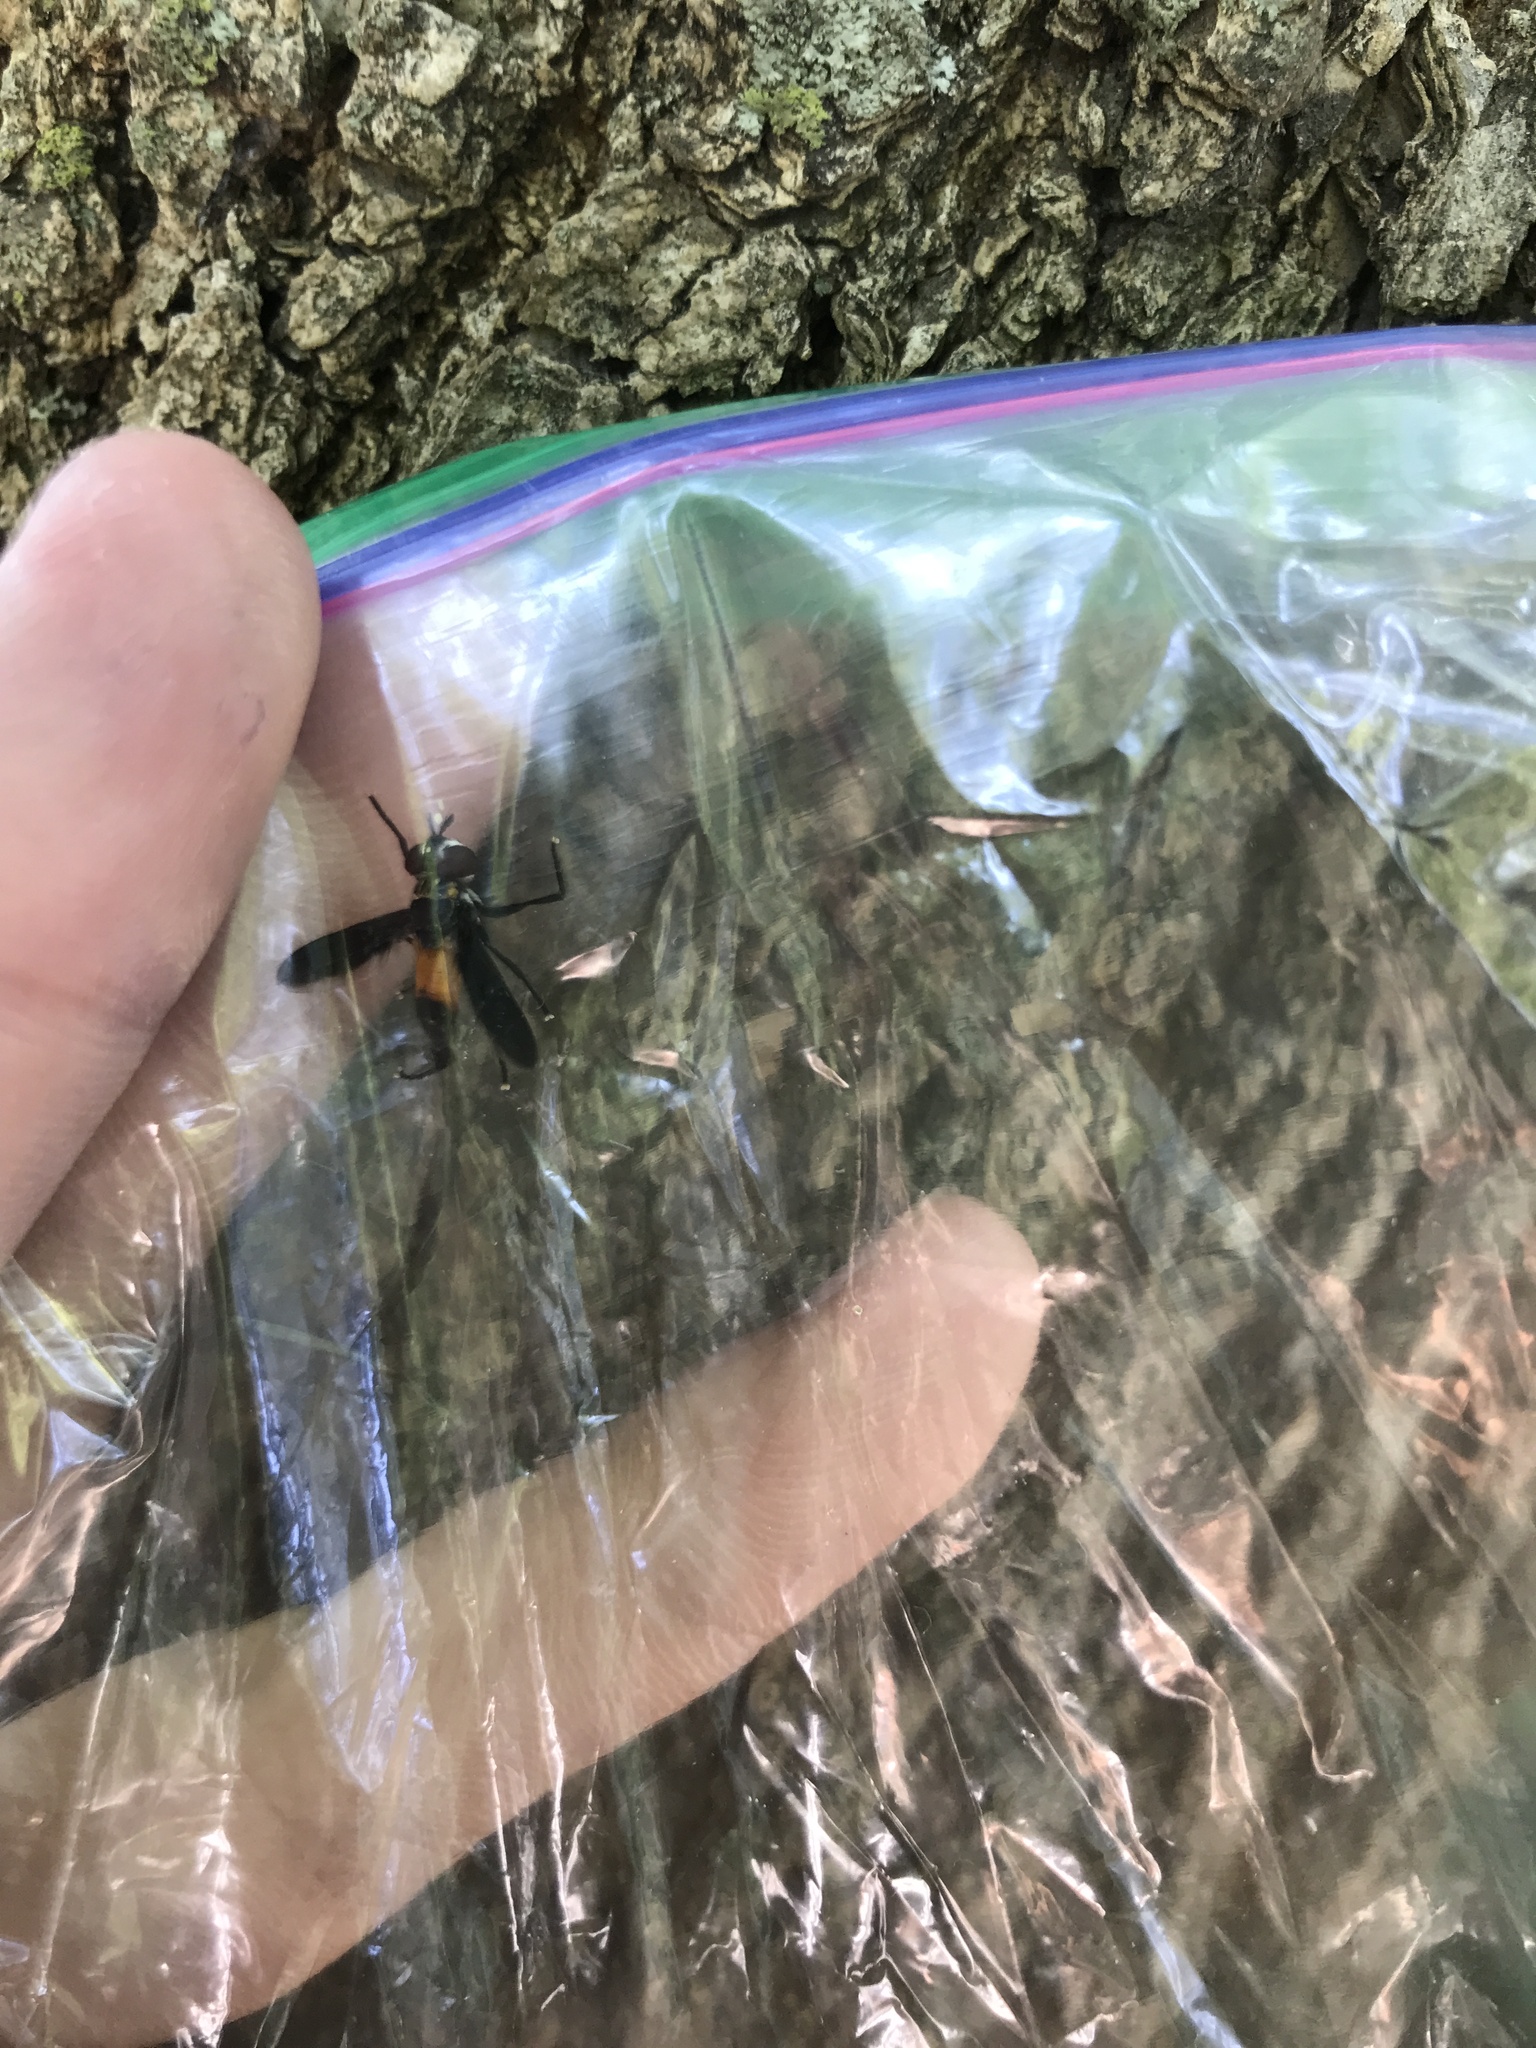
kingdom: Animalia
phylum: Arthropoda
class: Insecta
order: Diptera
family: Tachinidae
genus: Trichopoda
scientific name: Trichopoda pennipes
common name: Tachinid fly
